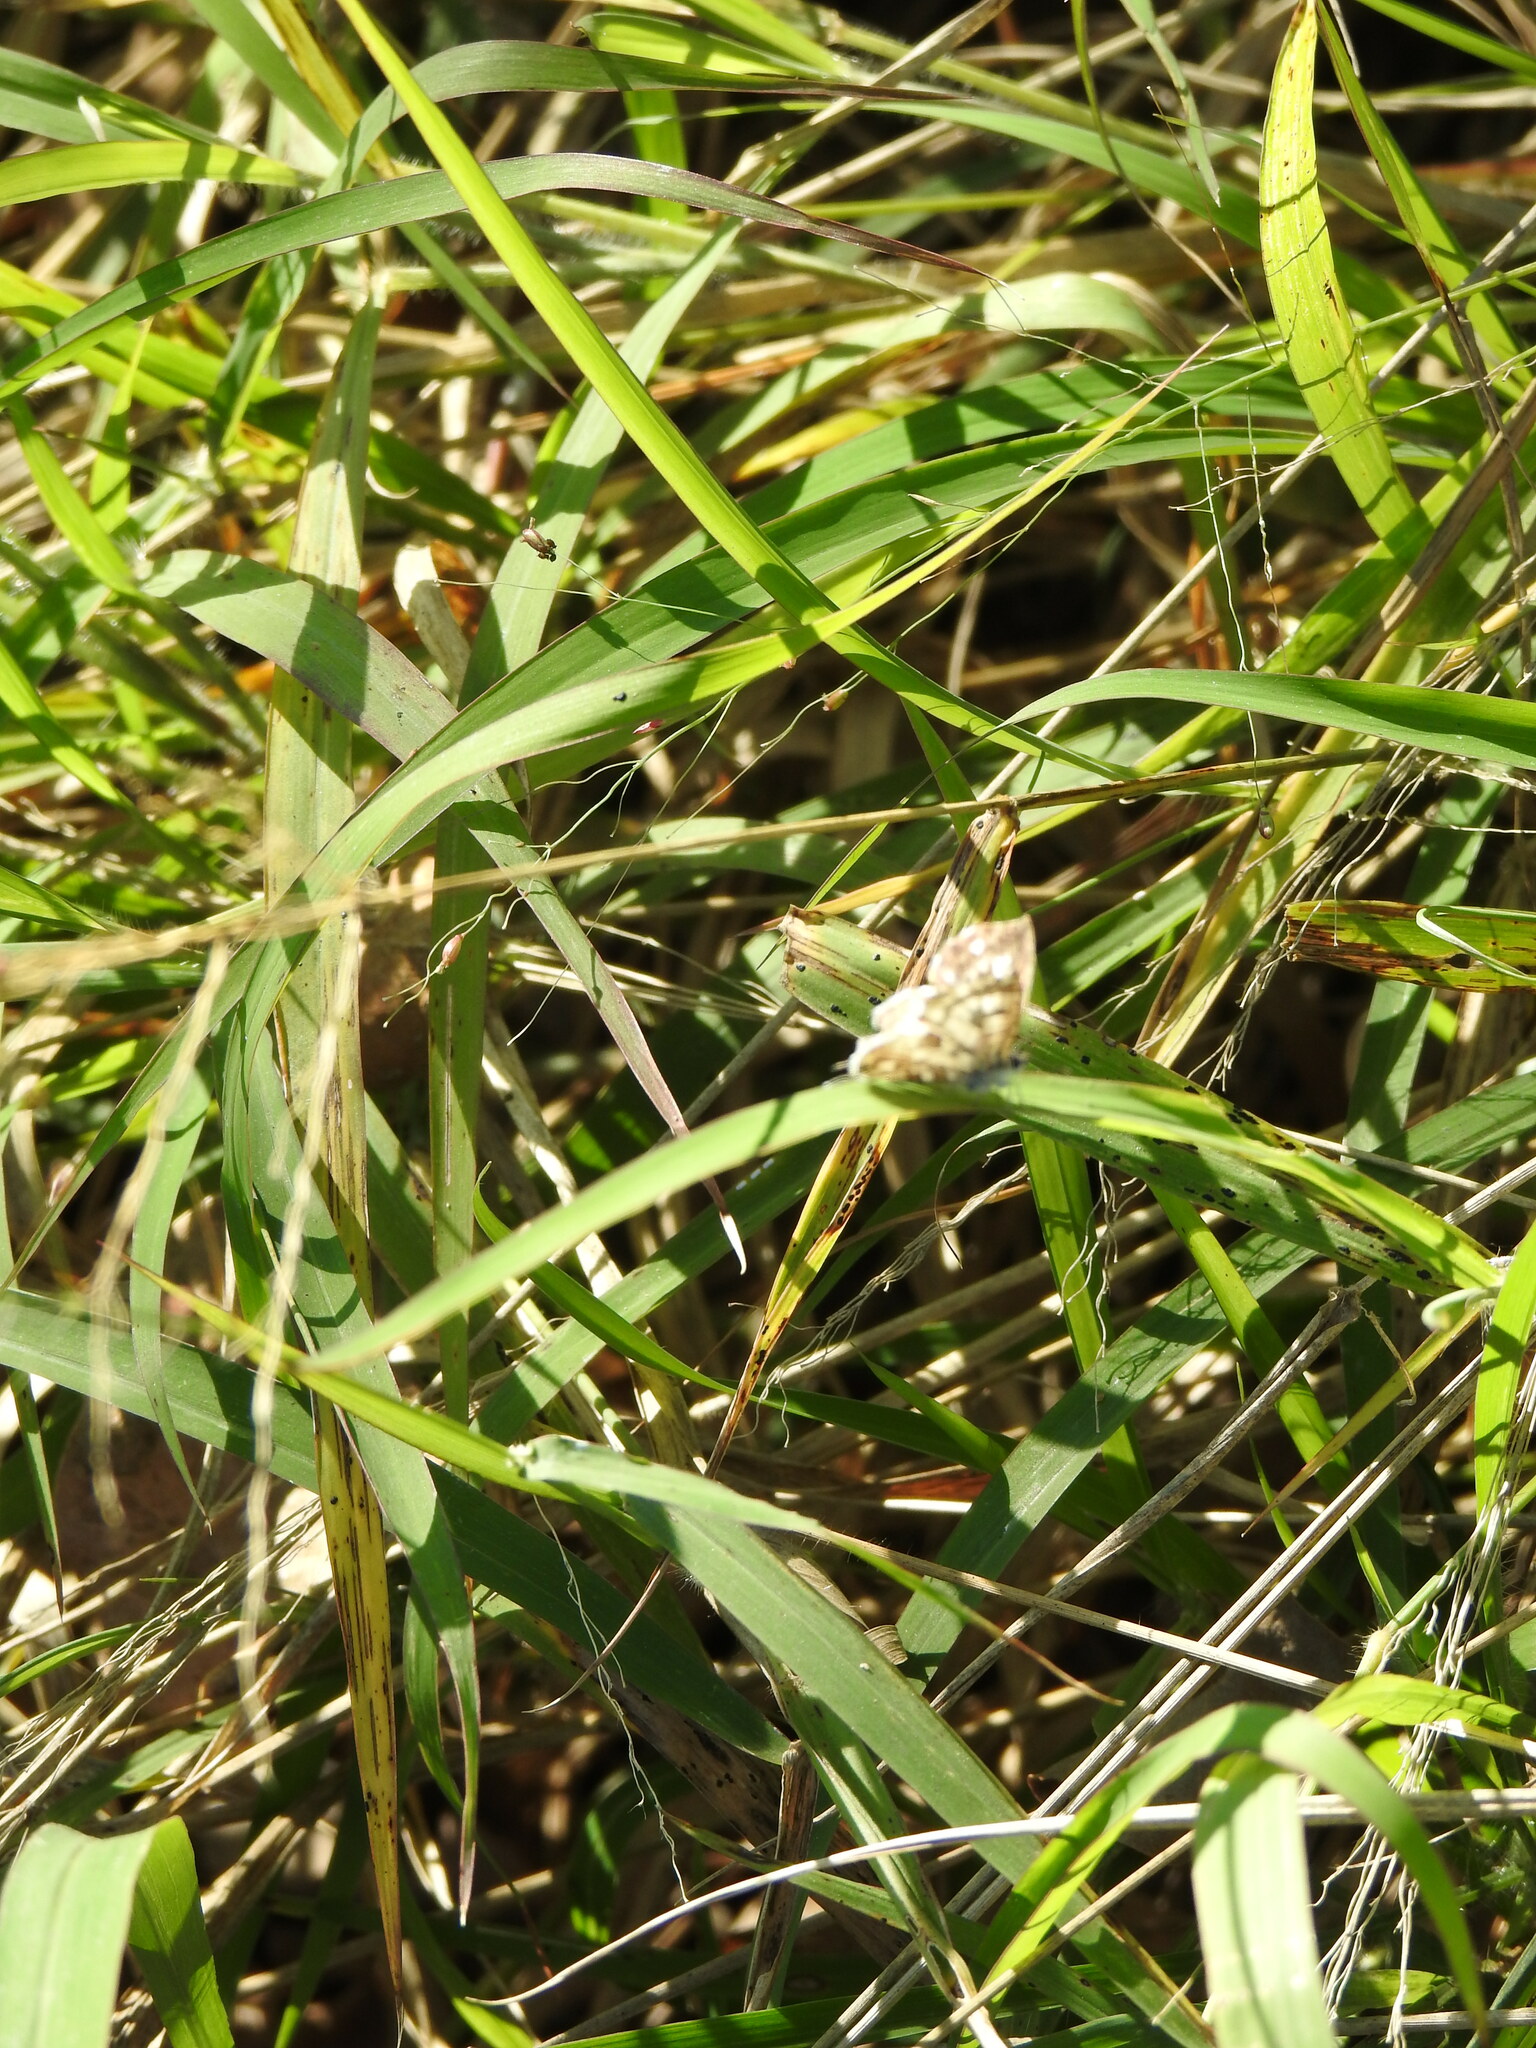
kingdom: Animalia
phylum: Arthropoda
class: Insecta
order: Lepidoptera
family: Lycaenidae
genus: Cacyreus
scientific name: Cacyreus lingeus
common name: Bush bronze
